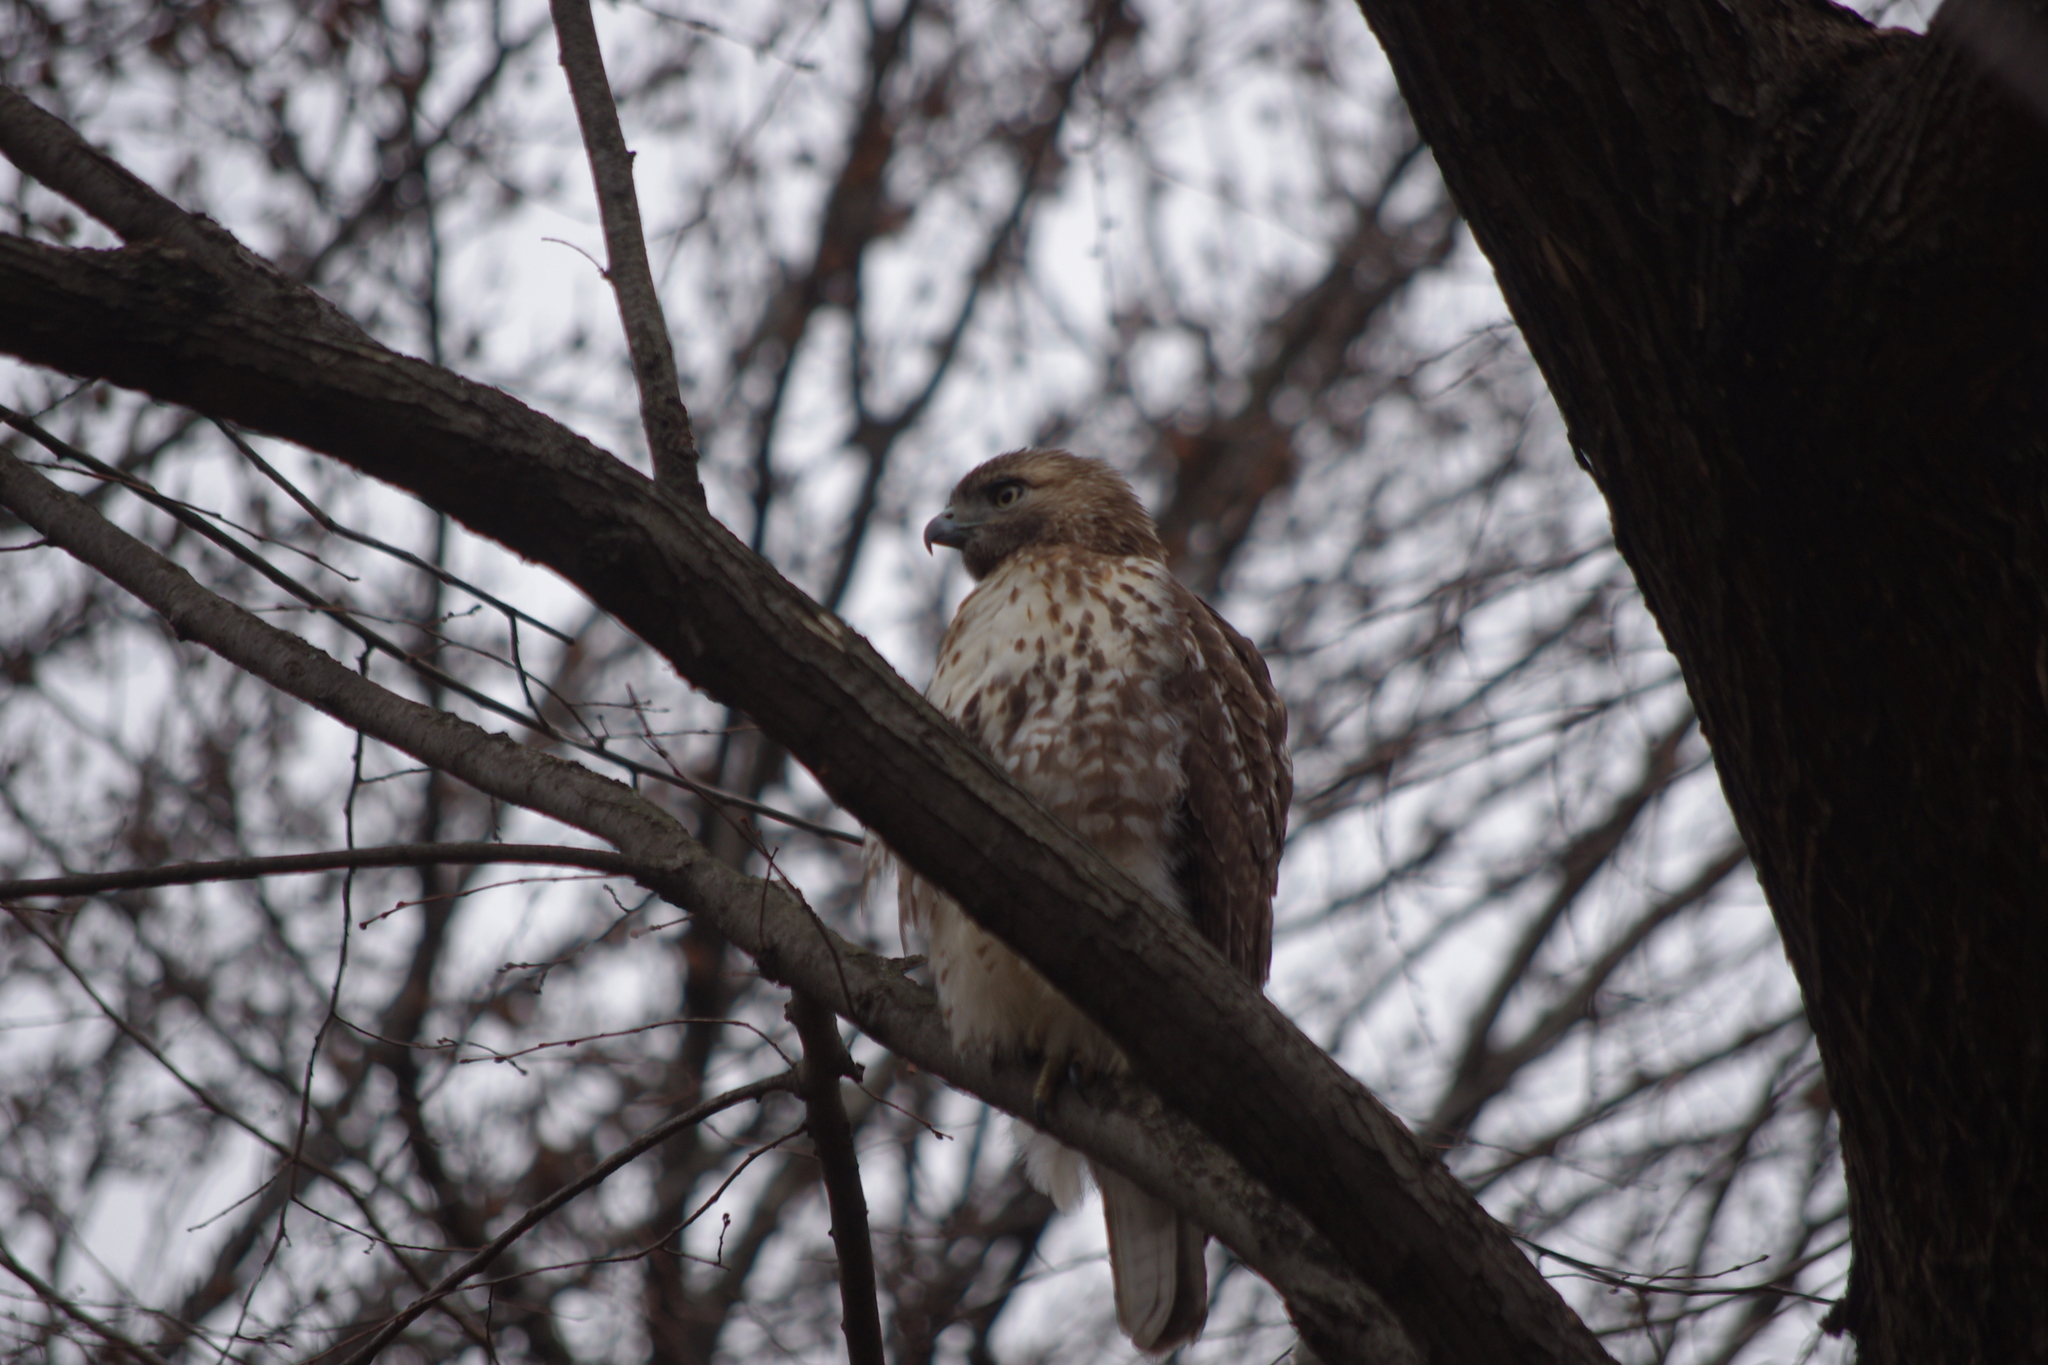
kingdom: Animalia
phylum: Chordata
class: Aves
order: Accipitriformes
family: Accipitridae
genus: Buteo
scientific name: Buteo jamaicensis
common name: Red-tailed hawk
